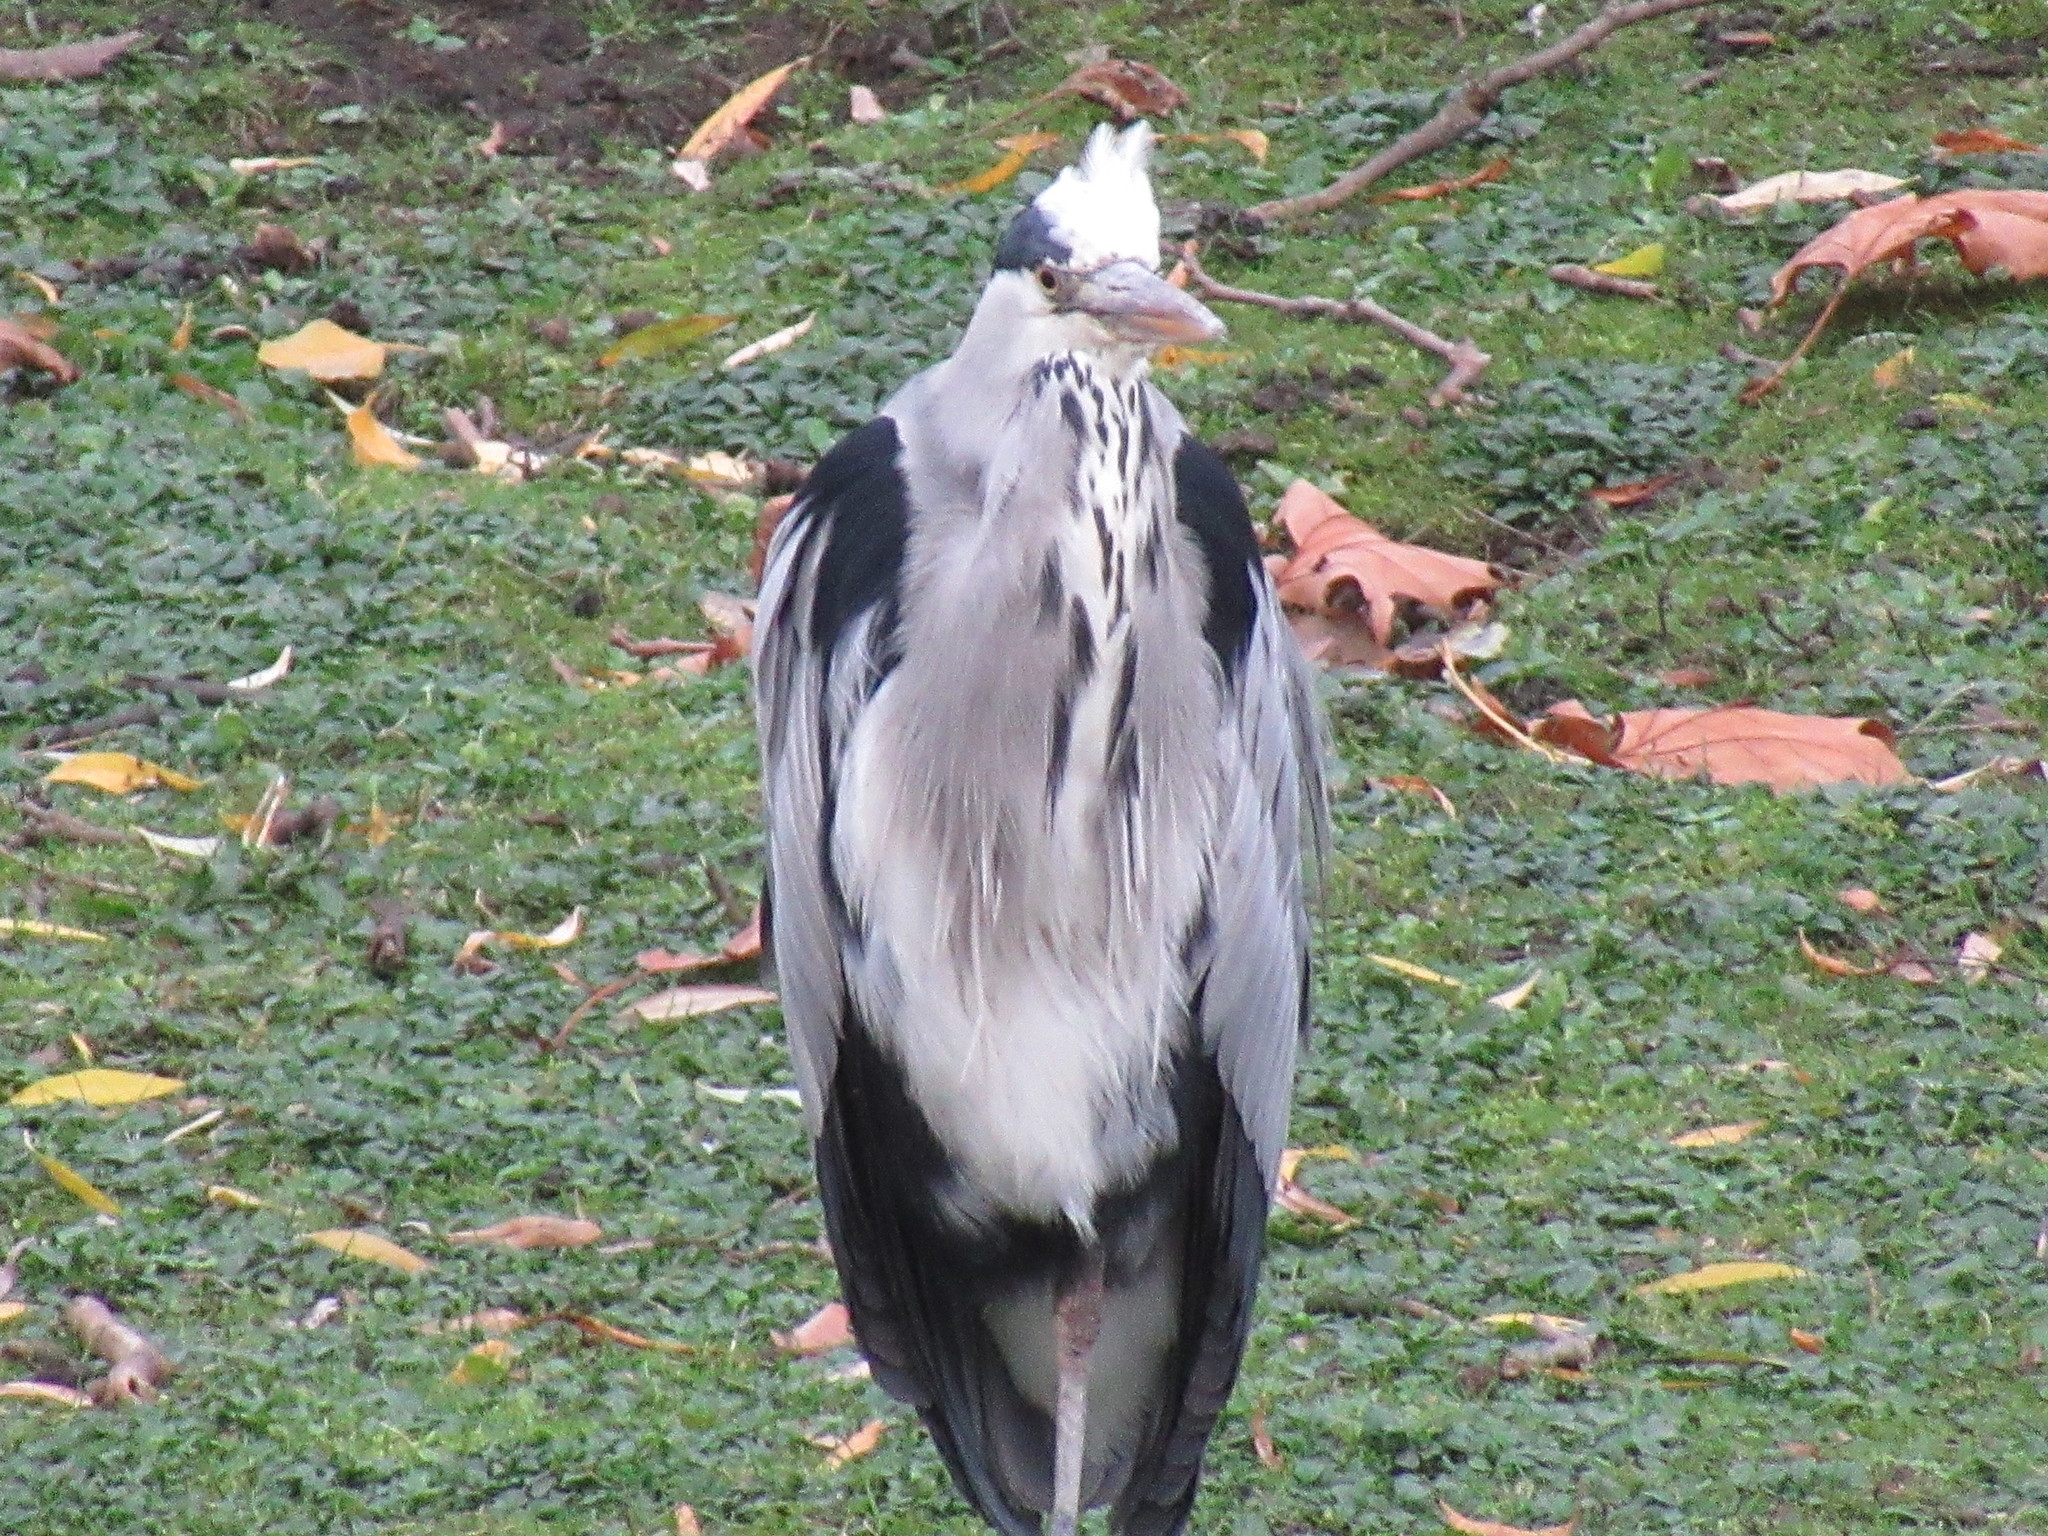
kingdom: Animalia
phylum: Chordata
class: Aves
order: Pelecaniformes
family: Ardeidae
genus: Ardea
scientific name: Ardea cinerea
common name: Grey heron
